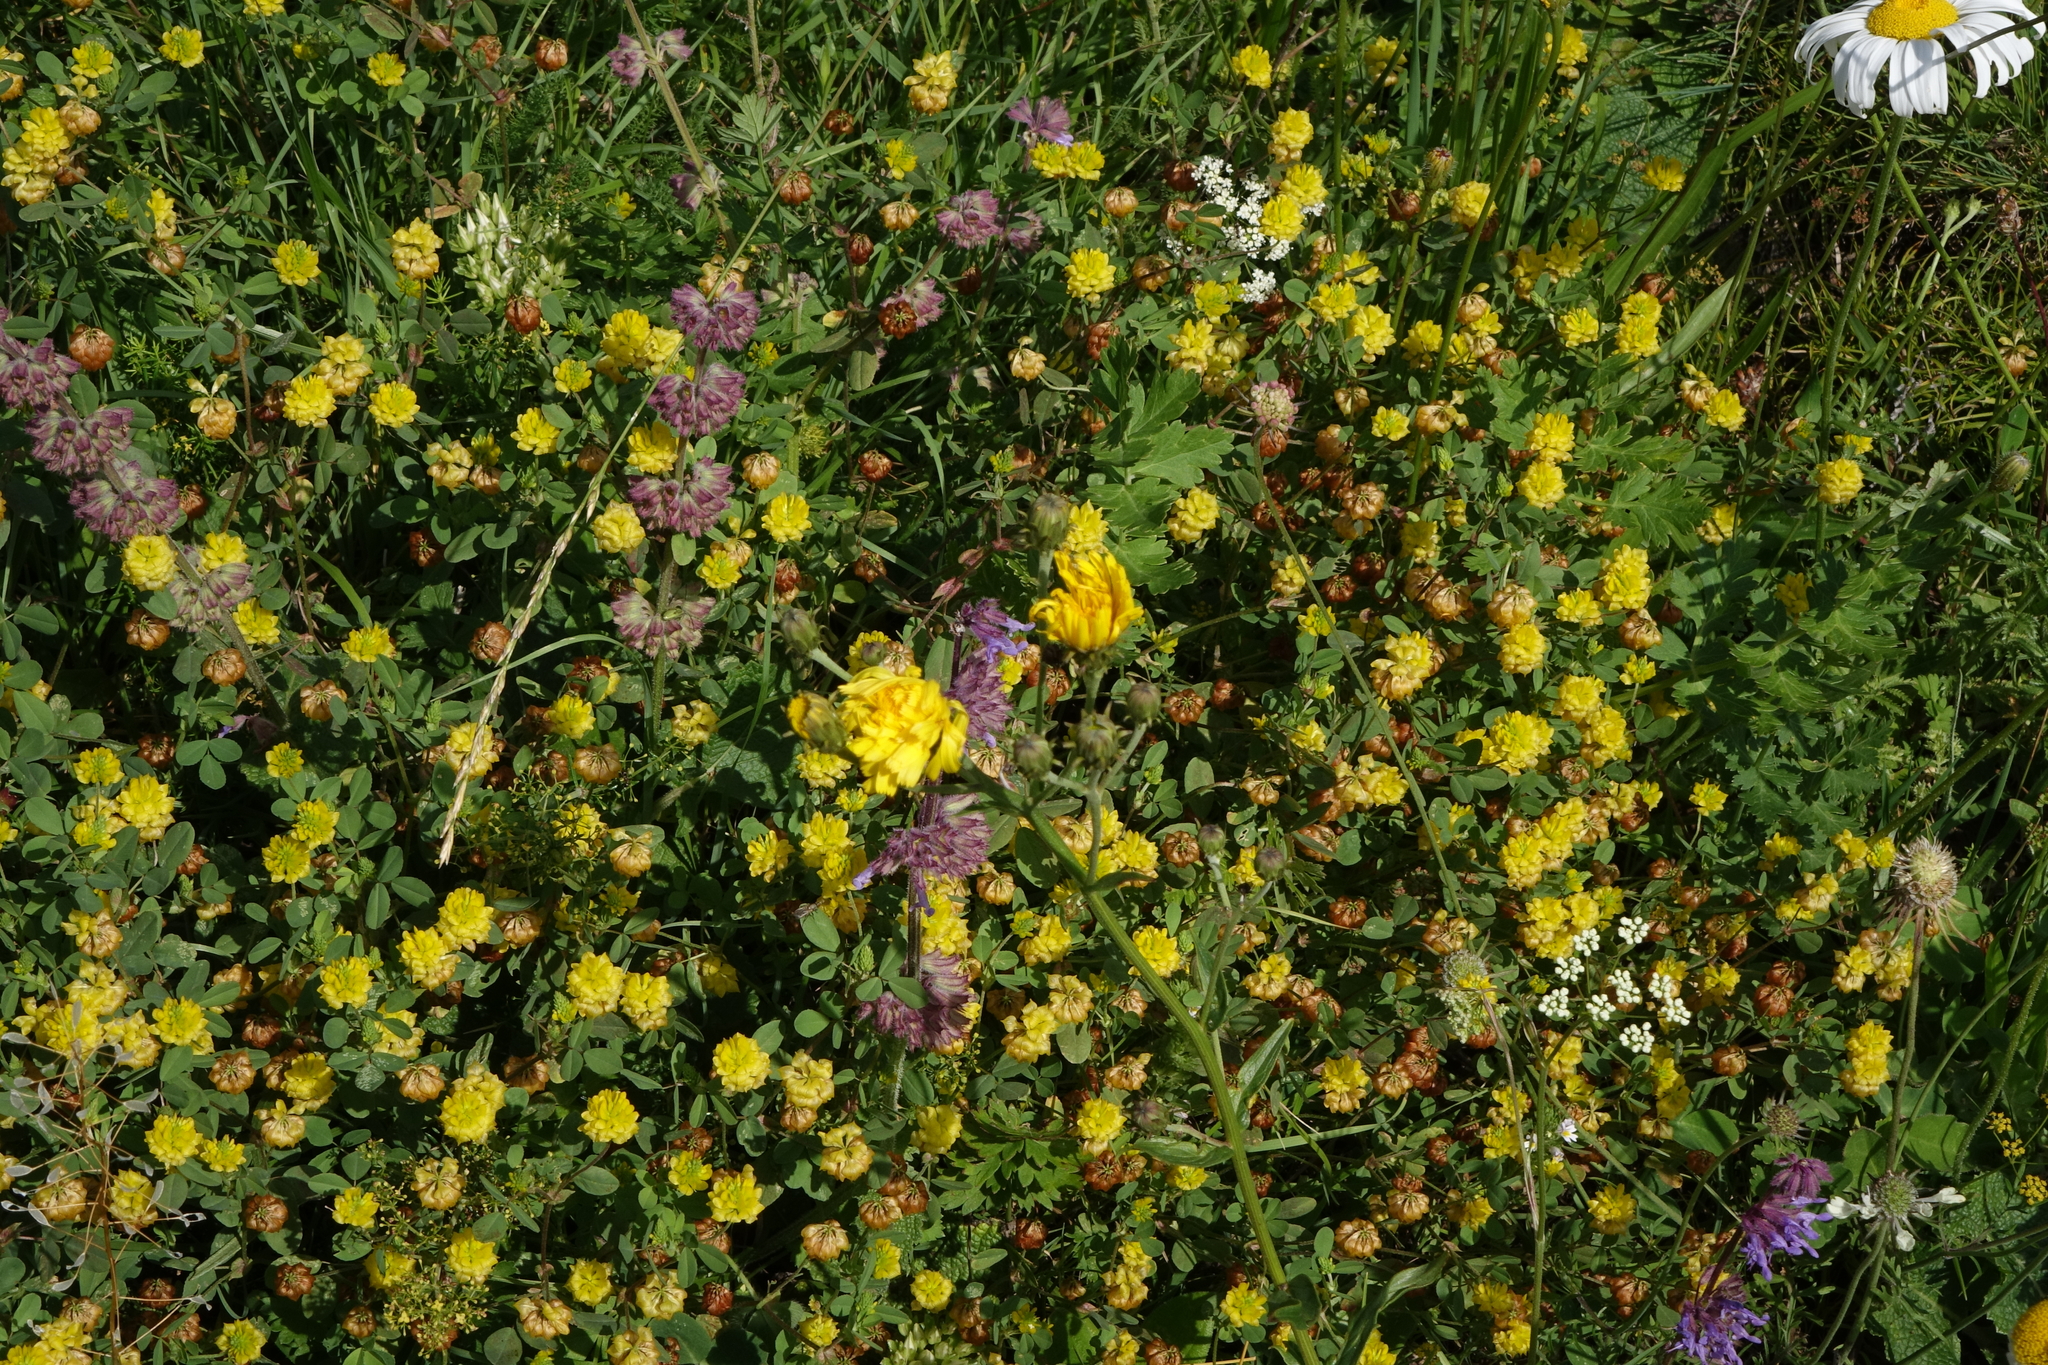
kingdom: Plantae
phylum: Tracheophyta
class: Magnoliopsida
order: Fabales
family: Fabaceae
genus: Trifolium
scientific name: Trifolium campestre
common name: Field clover
